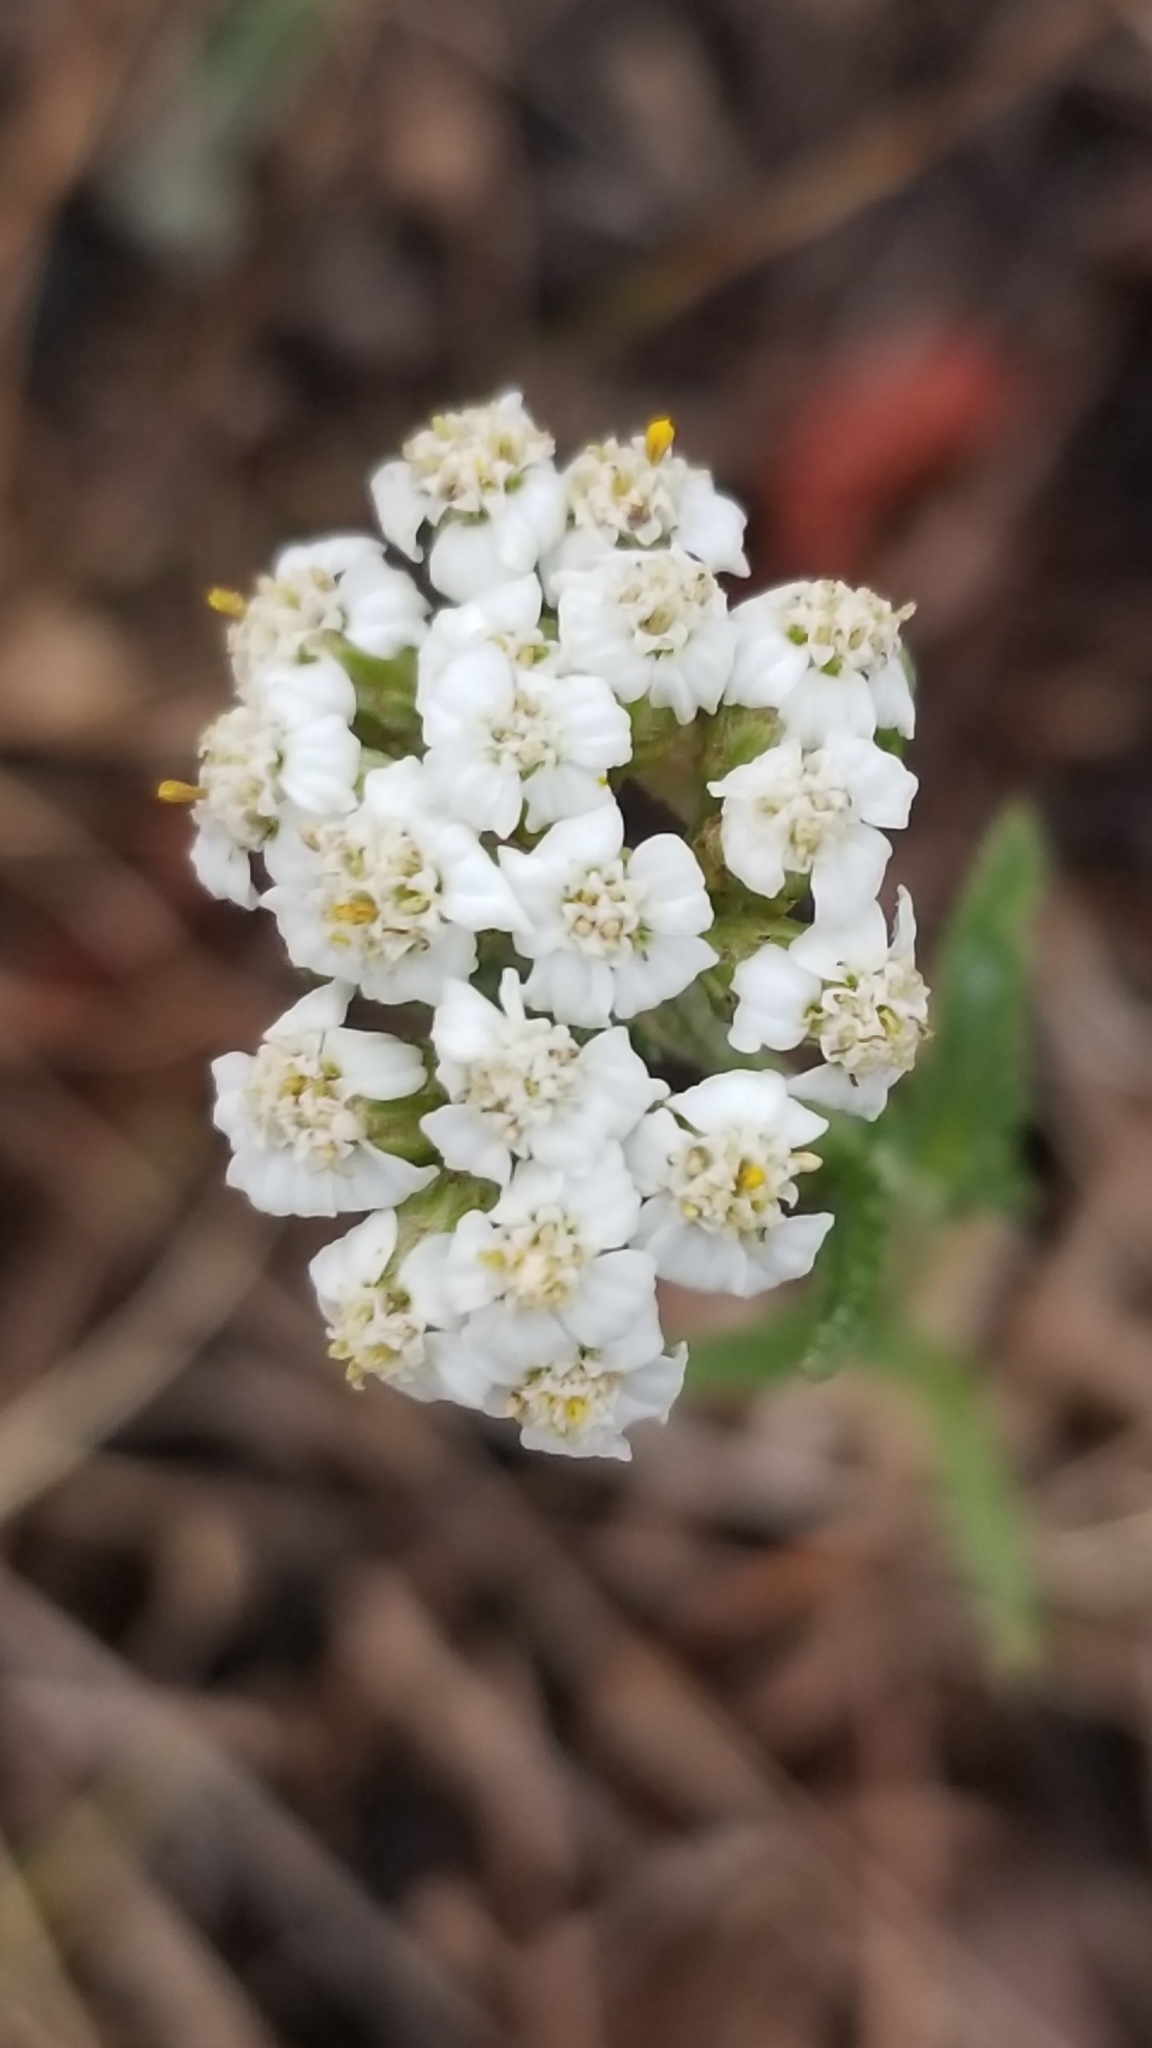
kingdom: Plantae
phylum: Tracheophyta
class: Magnoliopsida
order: Asterales
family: Asteraceae
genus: Achillea
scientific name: Achillea millefolium
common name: Yarrow
